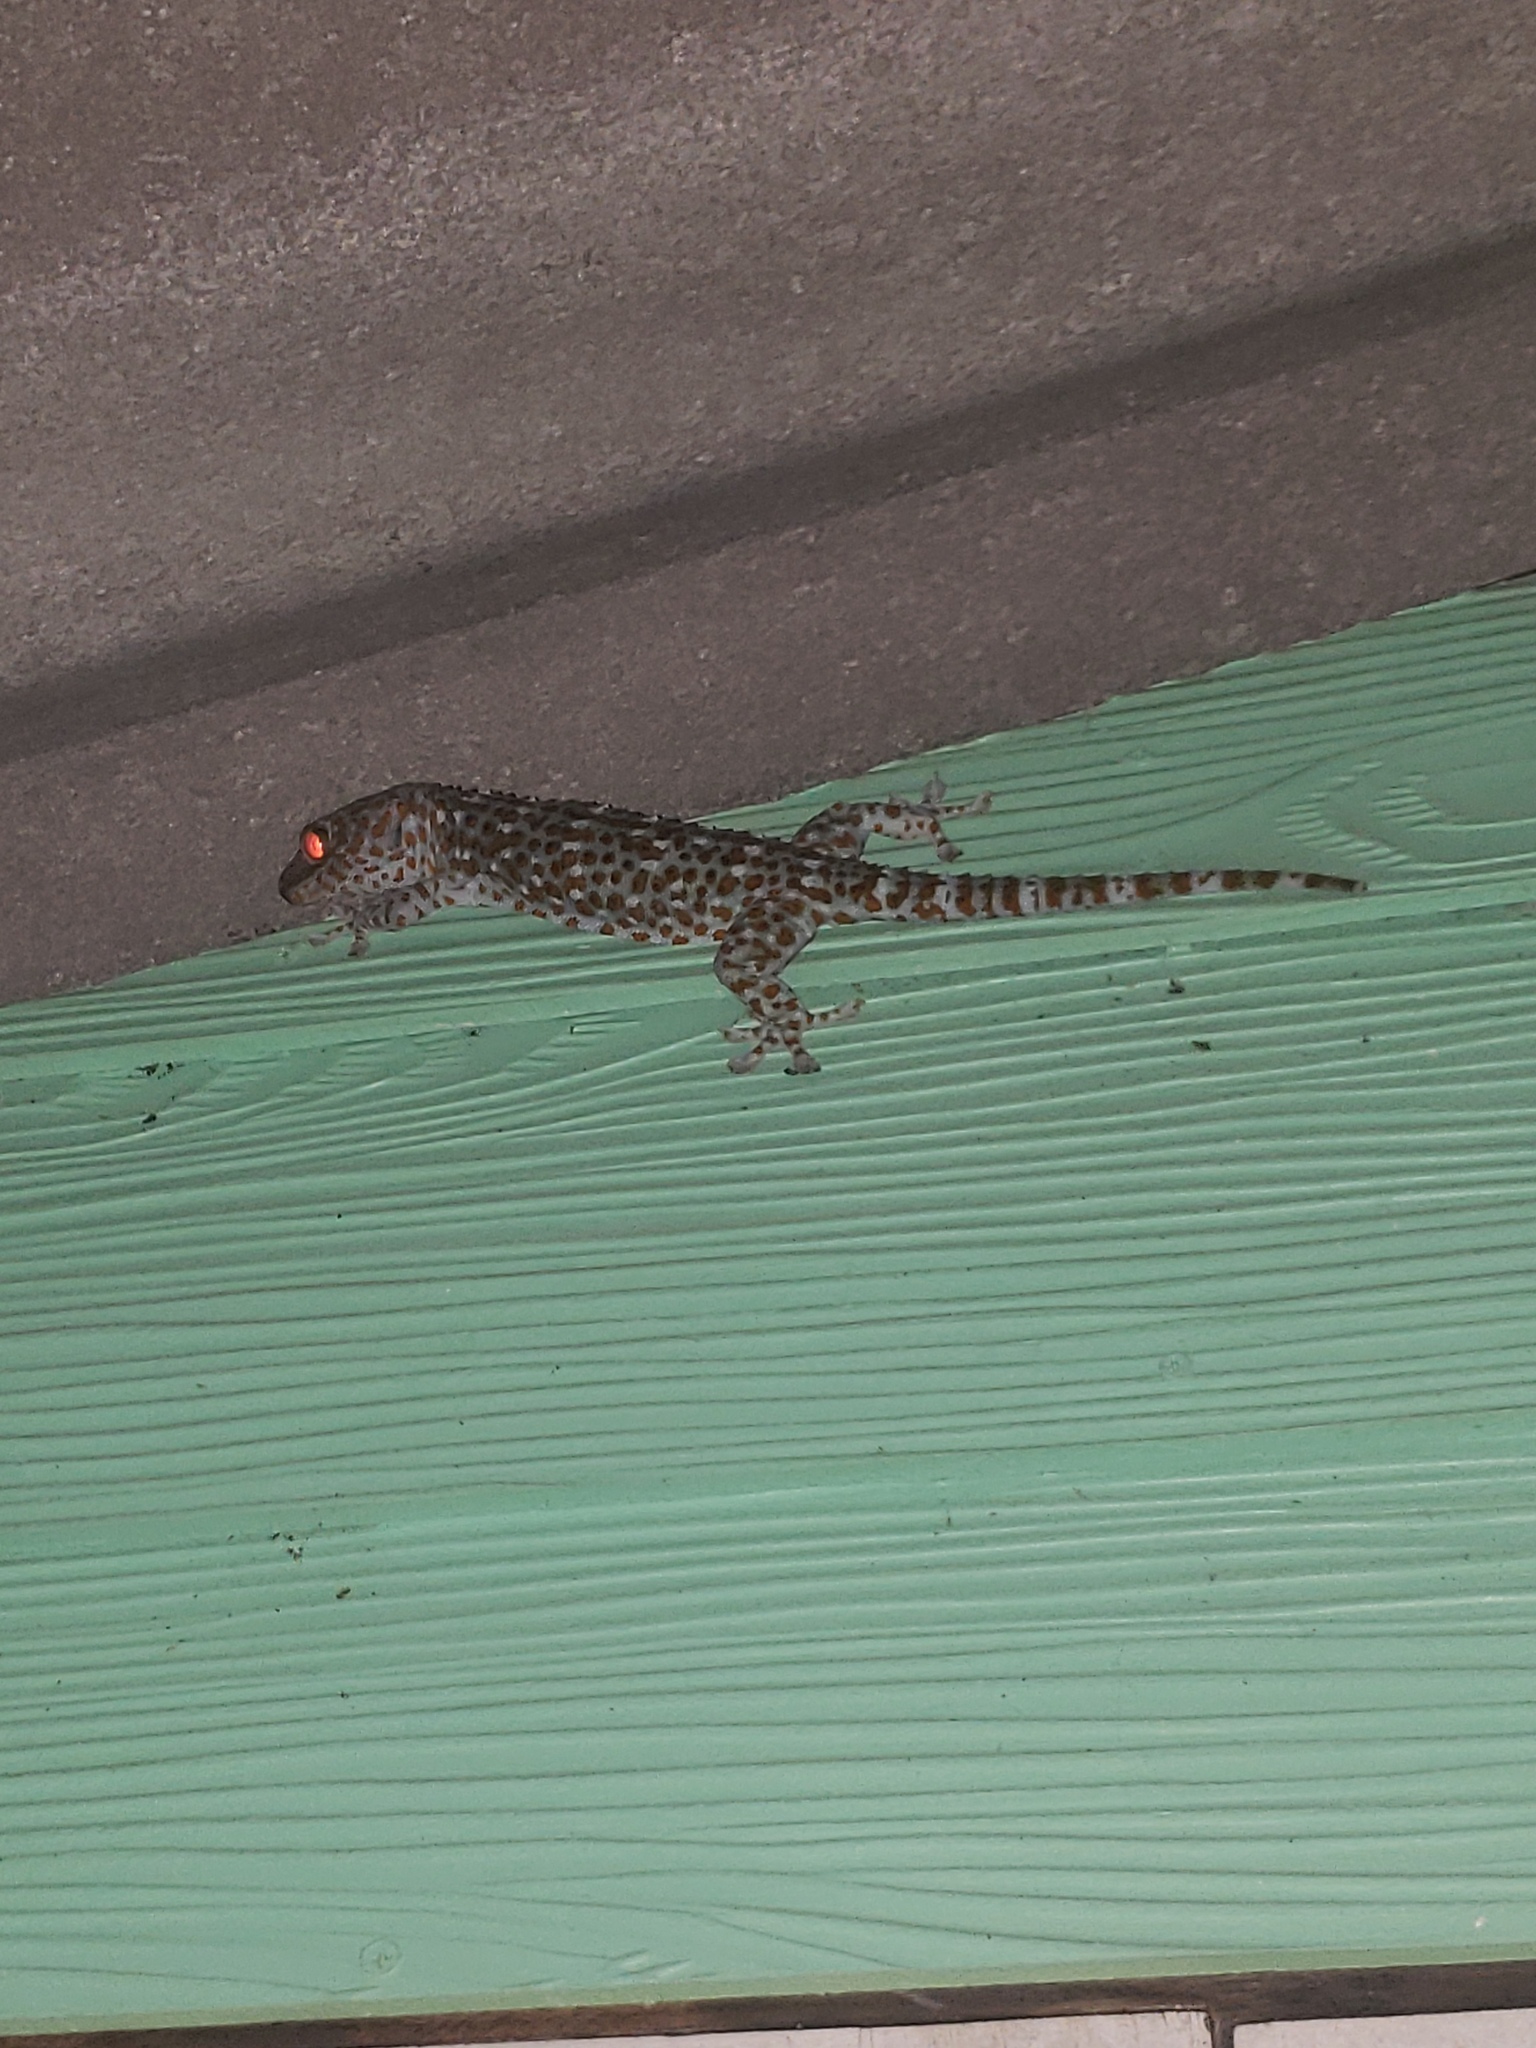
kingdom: Animalia
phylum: Chordata
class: Squamata
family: Gekkonidae
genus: Gekko
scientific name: Gekko gecko
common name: Tokay gecko
